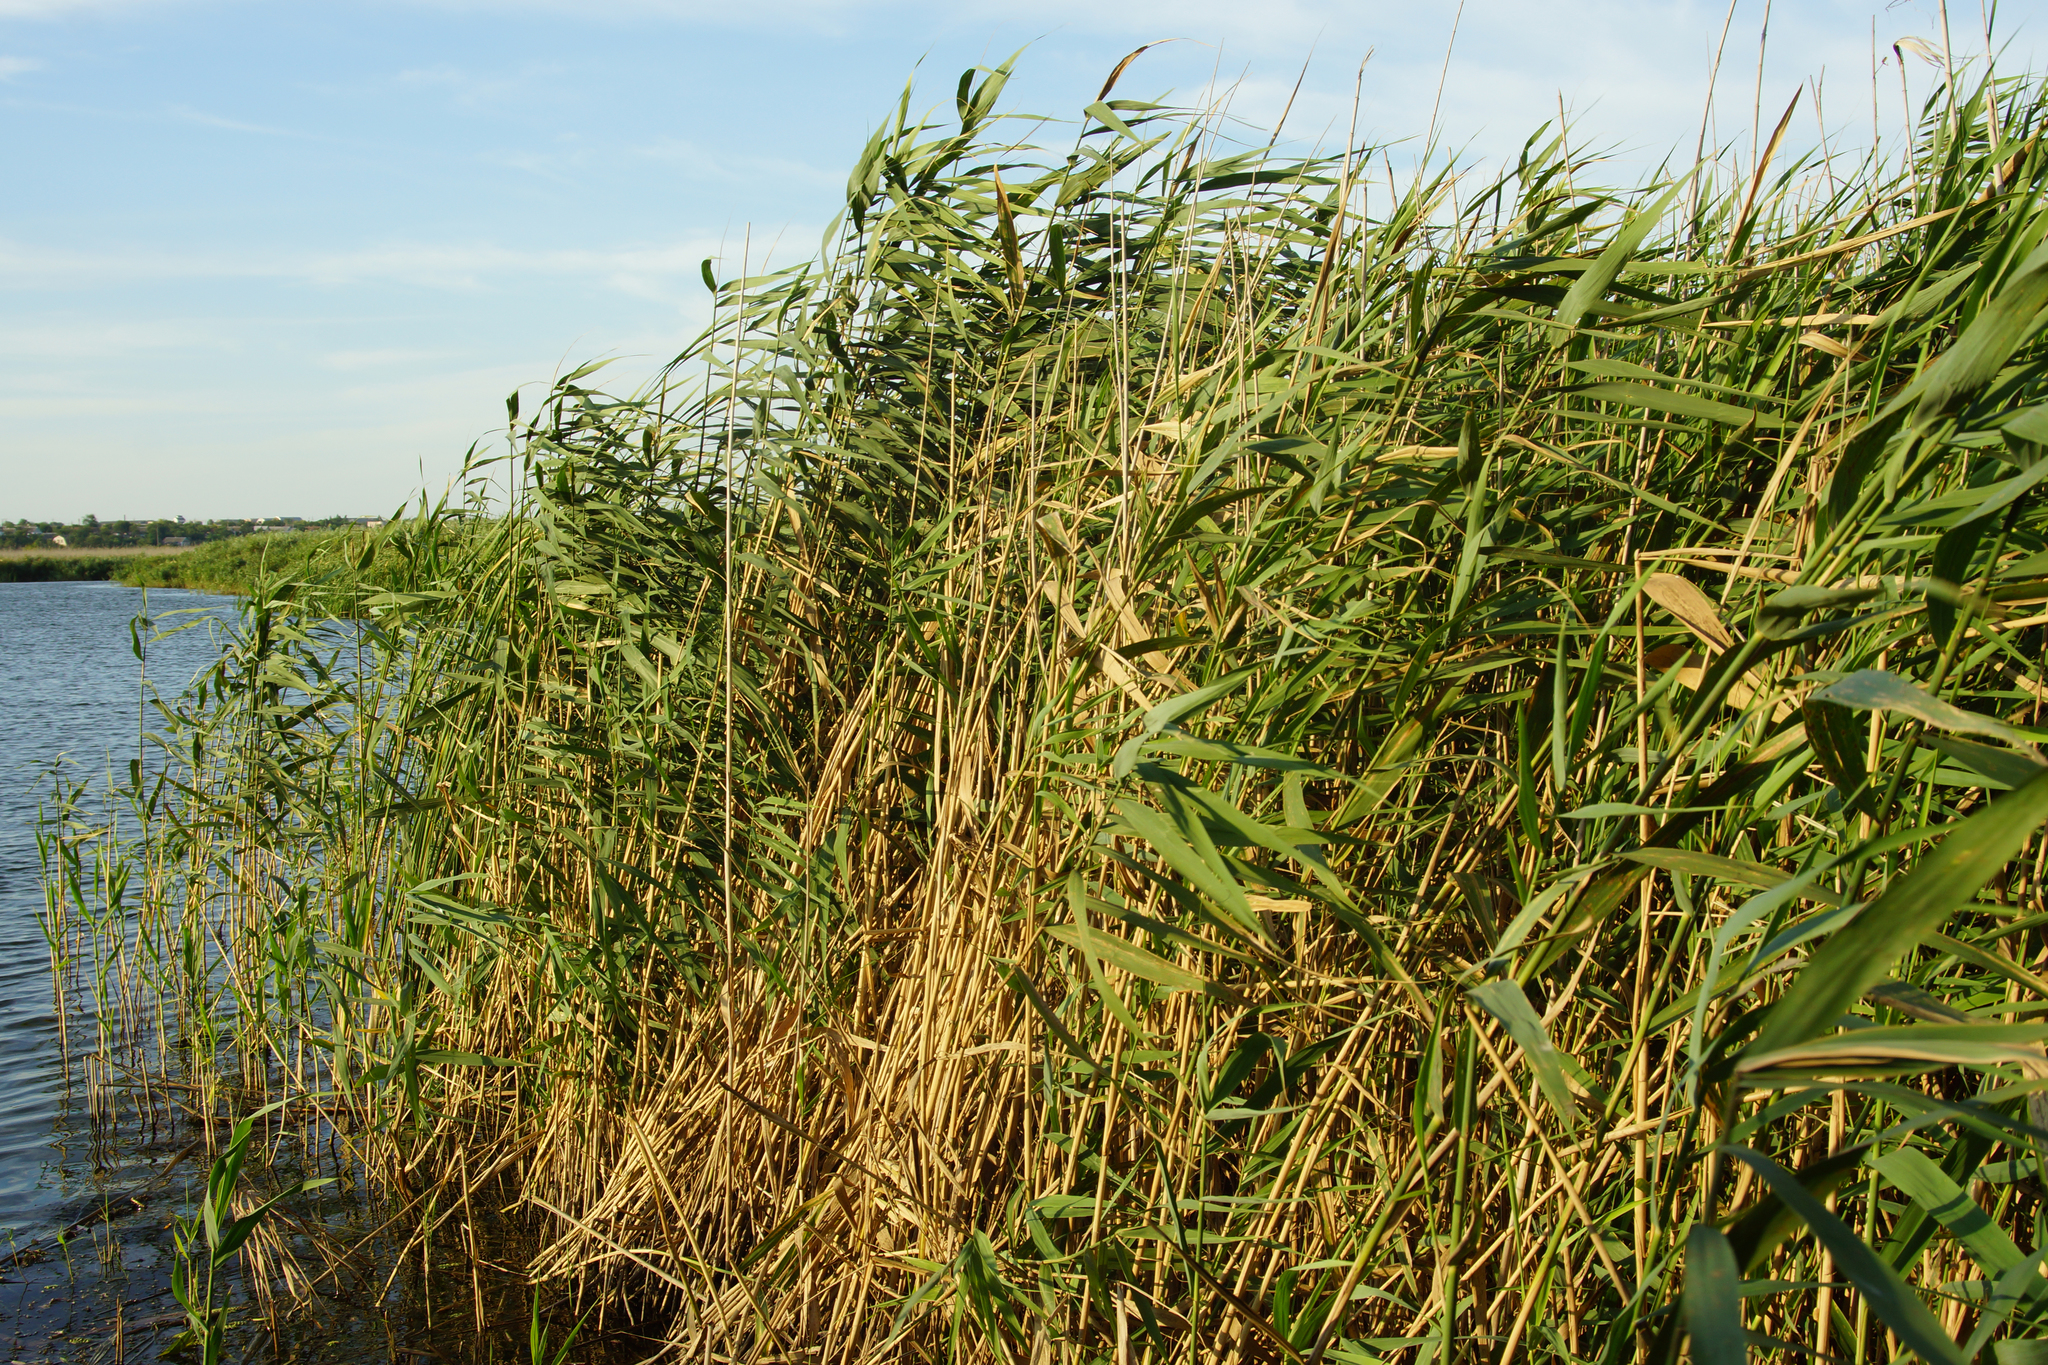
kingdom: Plantae
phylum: Tracheophyta
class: Liliopsida
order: Poales
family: Poaceae
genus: Phragmites
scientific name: Phragmites australis
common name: Common reed
